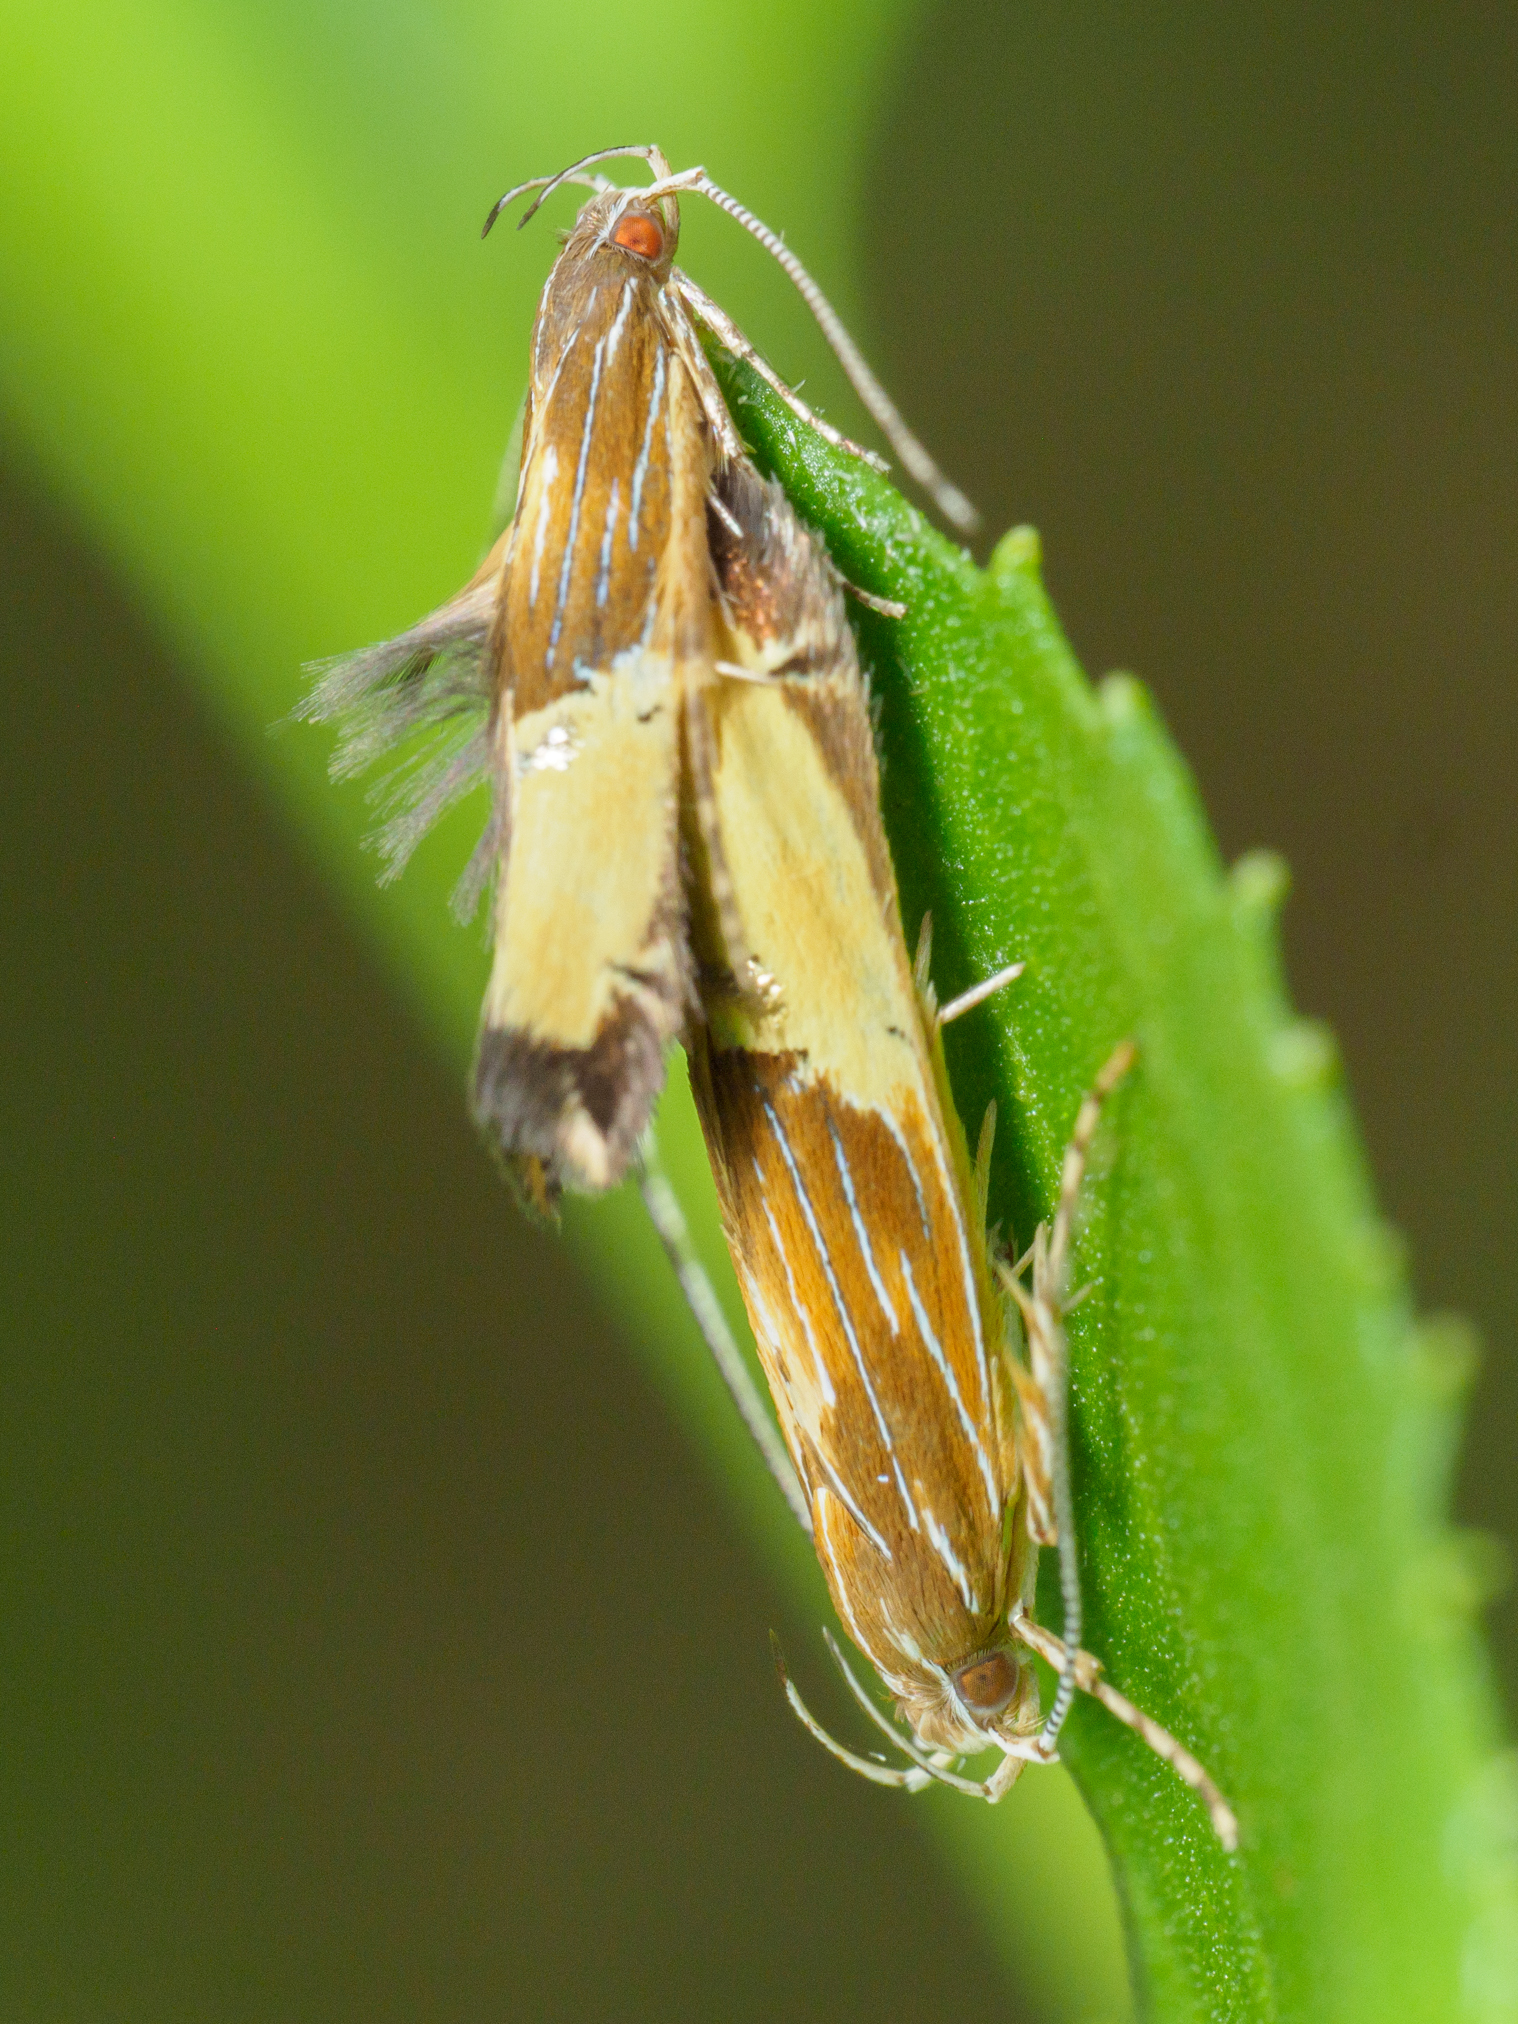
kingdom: Animalia
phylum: Arthropoda
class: Insecta
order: Lepidoptera
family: Cosmopterigidae
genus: Labdia
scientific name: Labdia deliciosella
